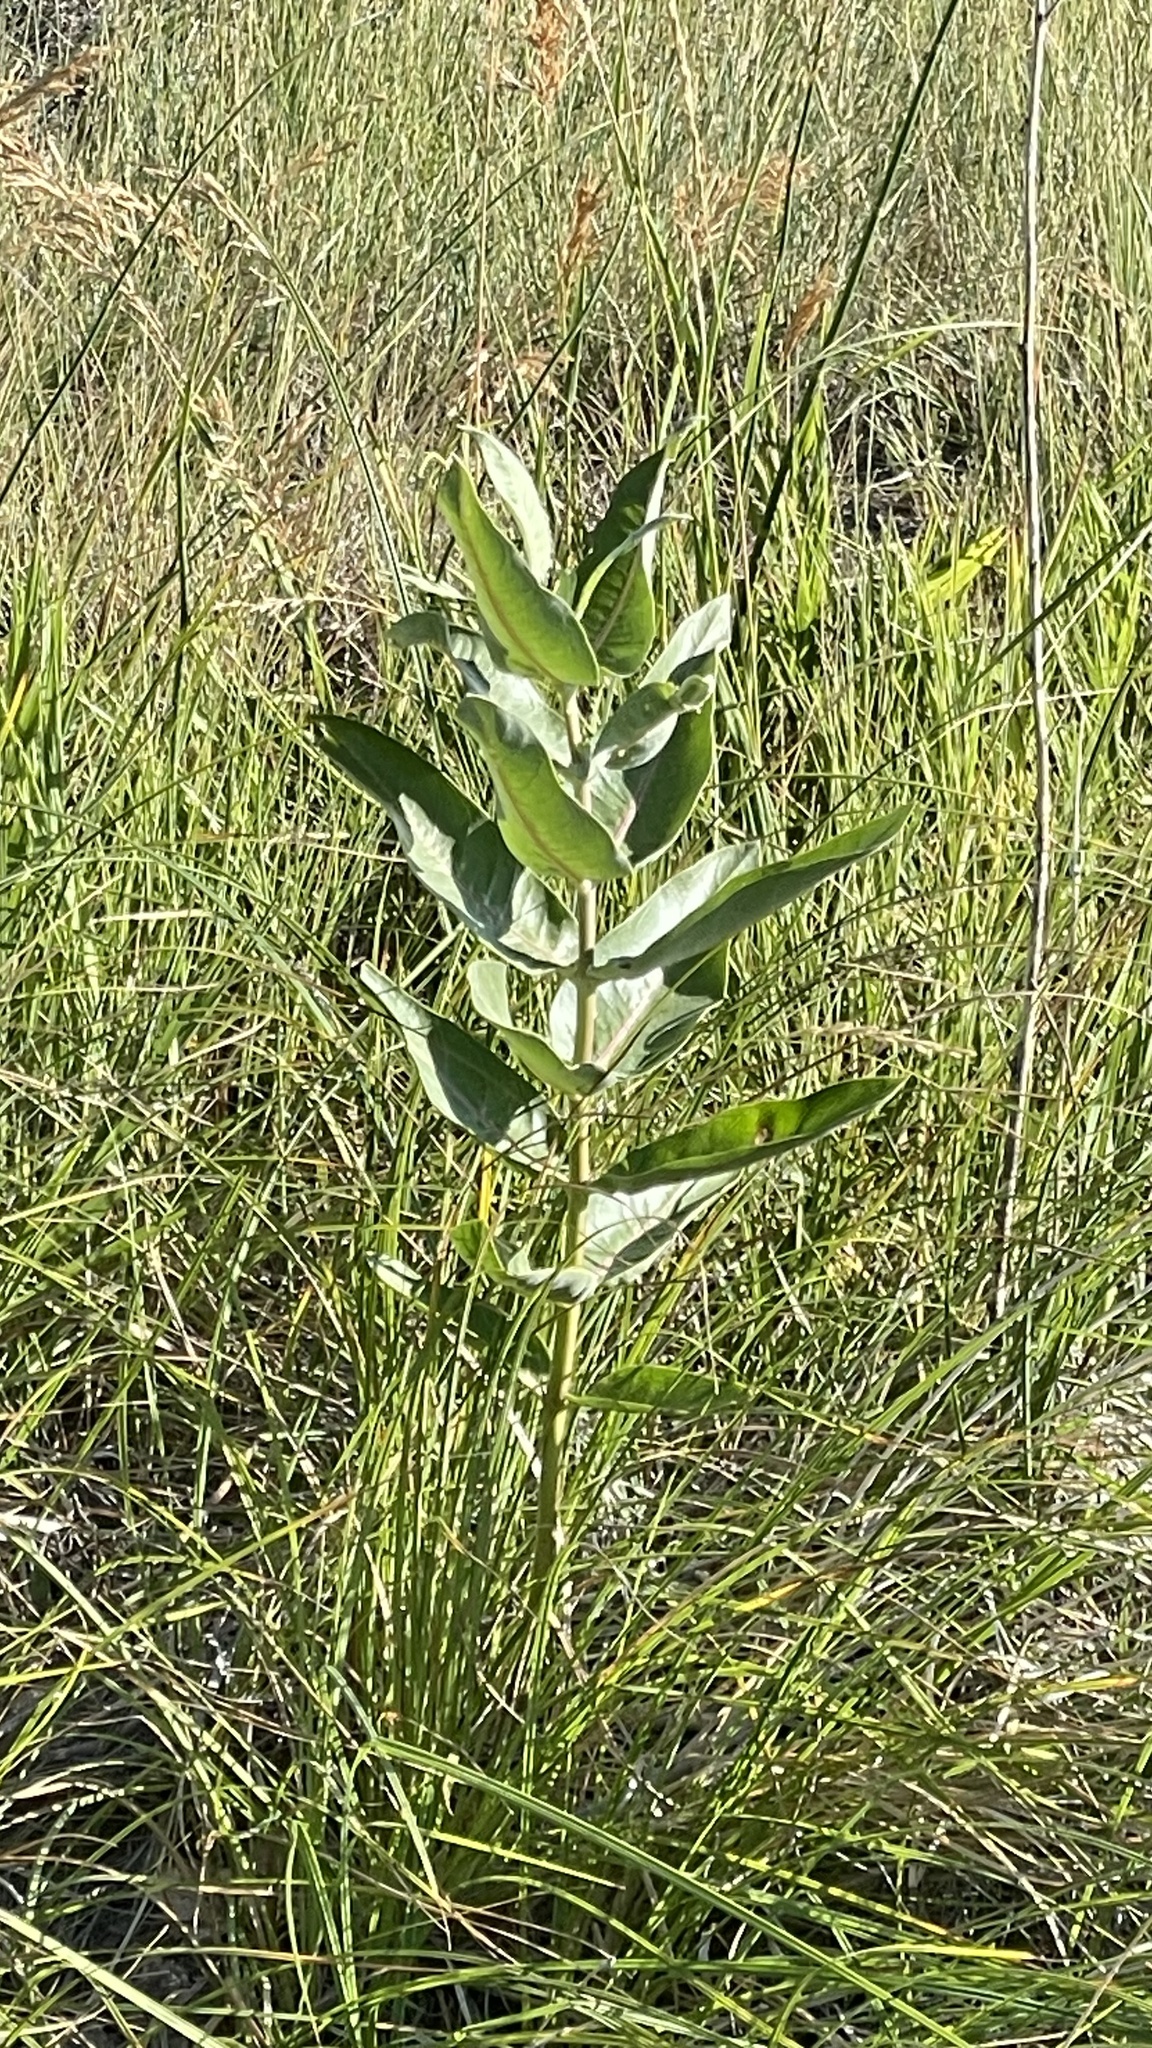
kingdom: Plantae
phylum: Tracheophyta
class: Magnoliopsida
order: Gentianales
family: Apocynaceae
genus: Asclepias
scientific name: Asclepias speciosa
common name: Showy milkweed
